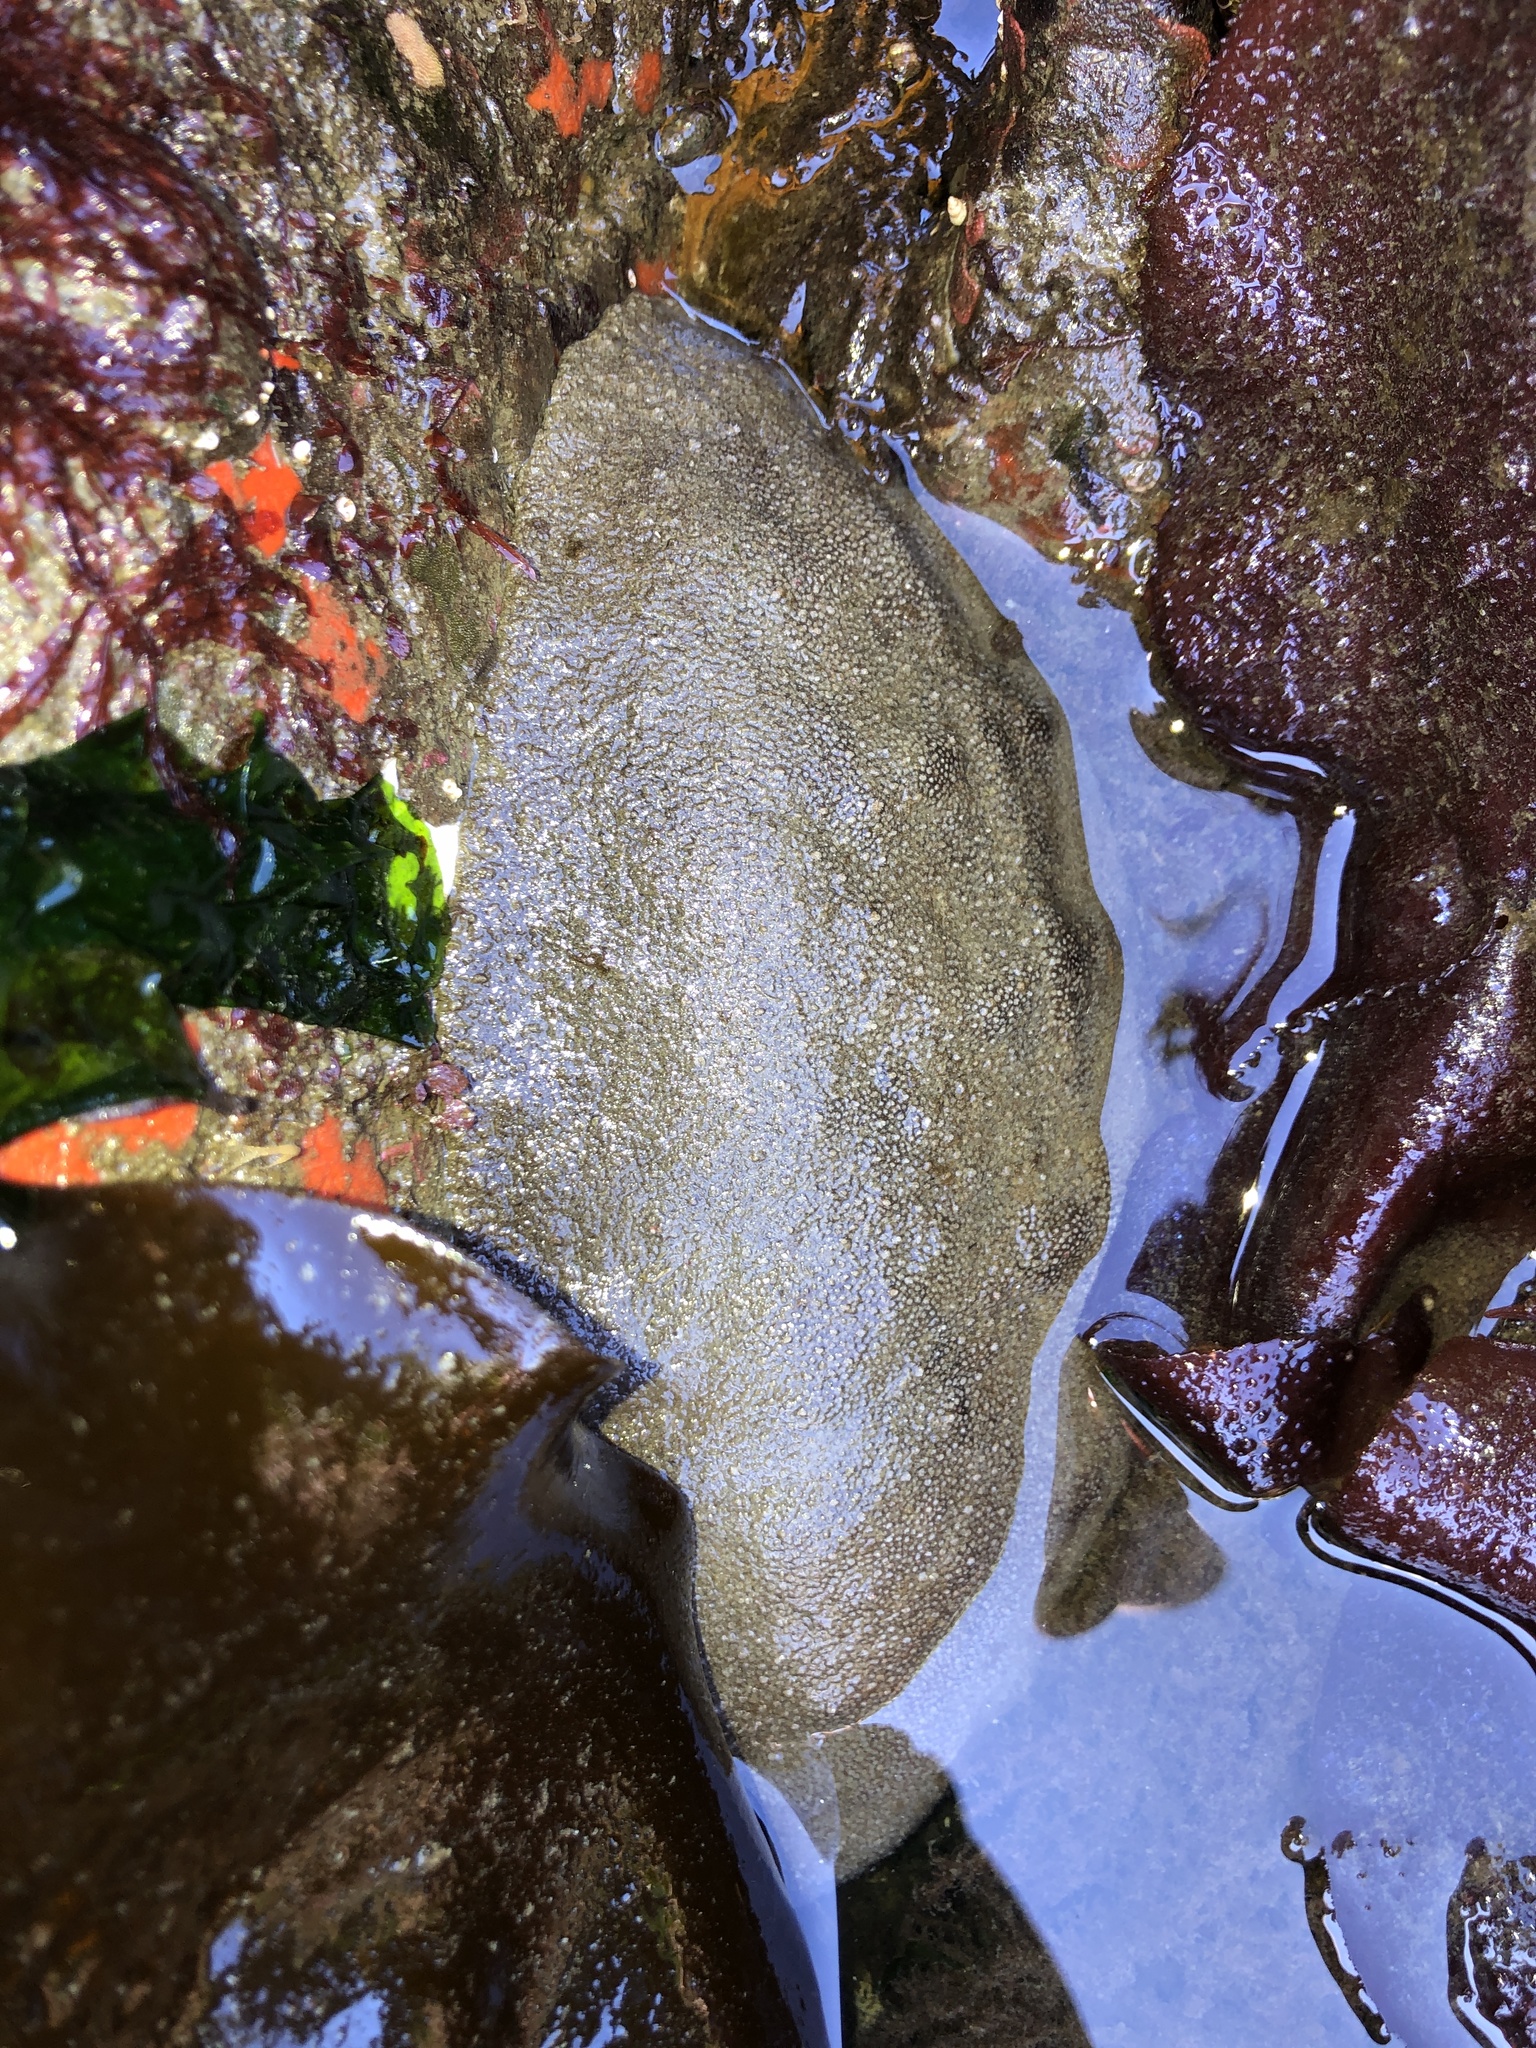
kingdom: Animalia
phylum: Mollusca
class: Polyplacophora
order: Chitonida
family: Acanthochitonidae
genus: Cryptochiton
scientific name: Cryptochiton stelleri
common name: Giant pacific chiton
